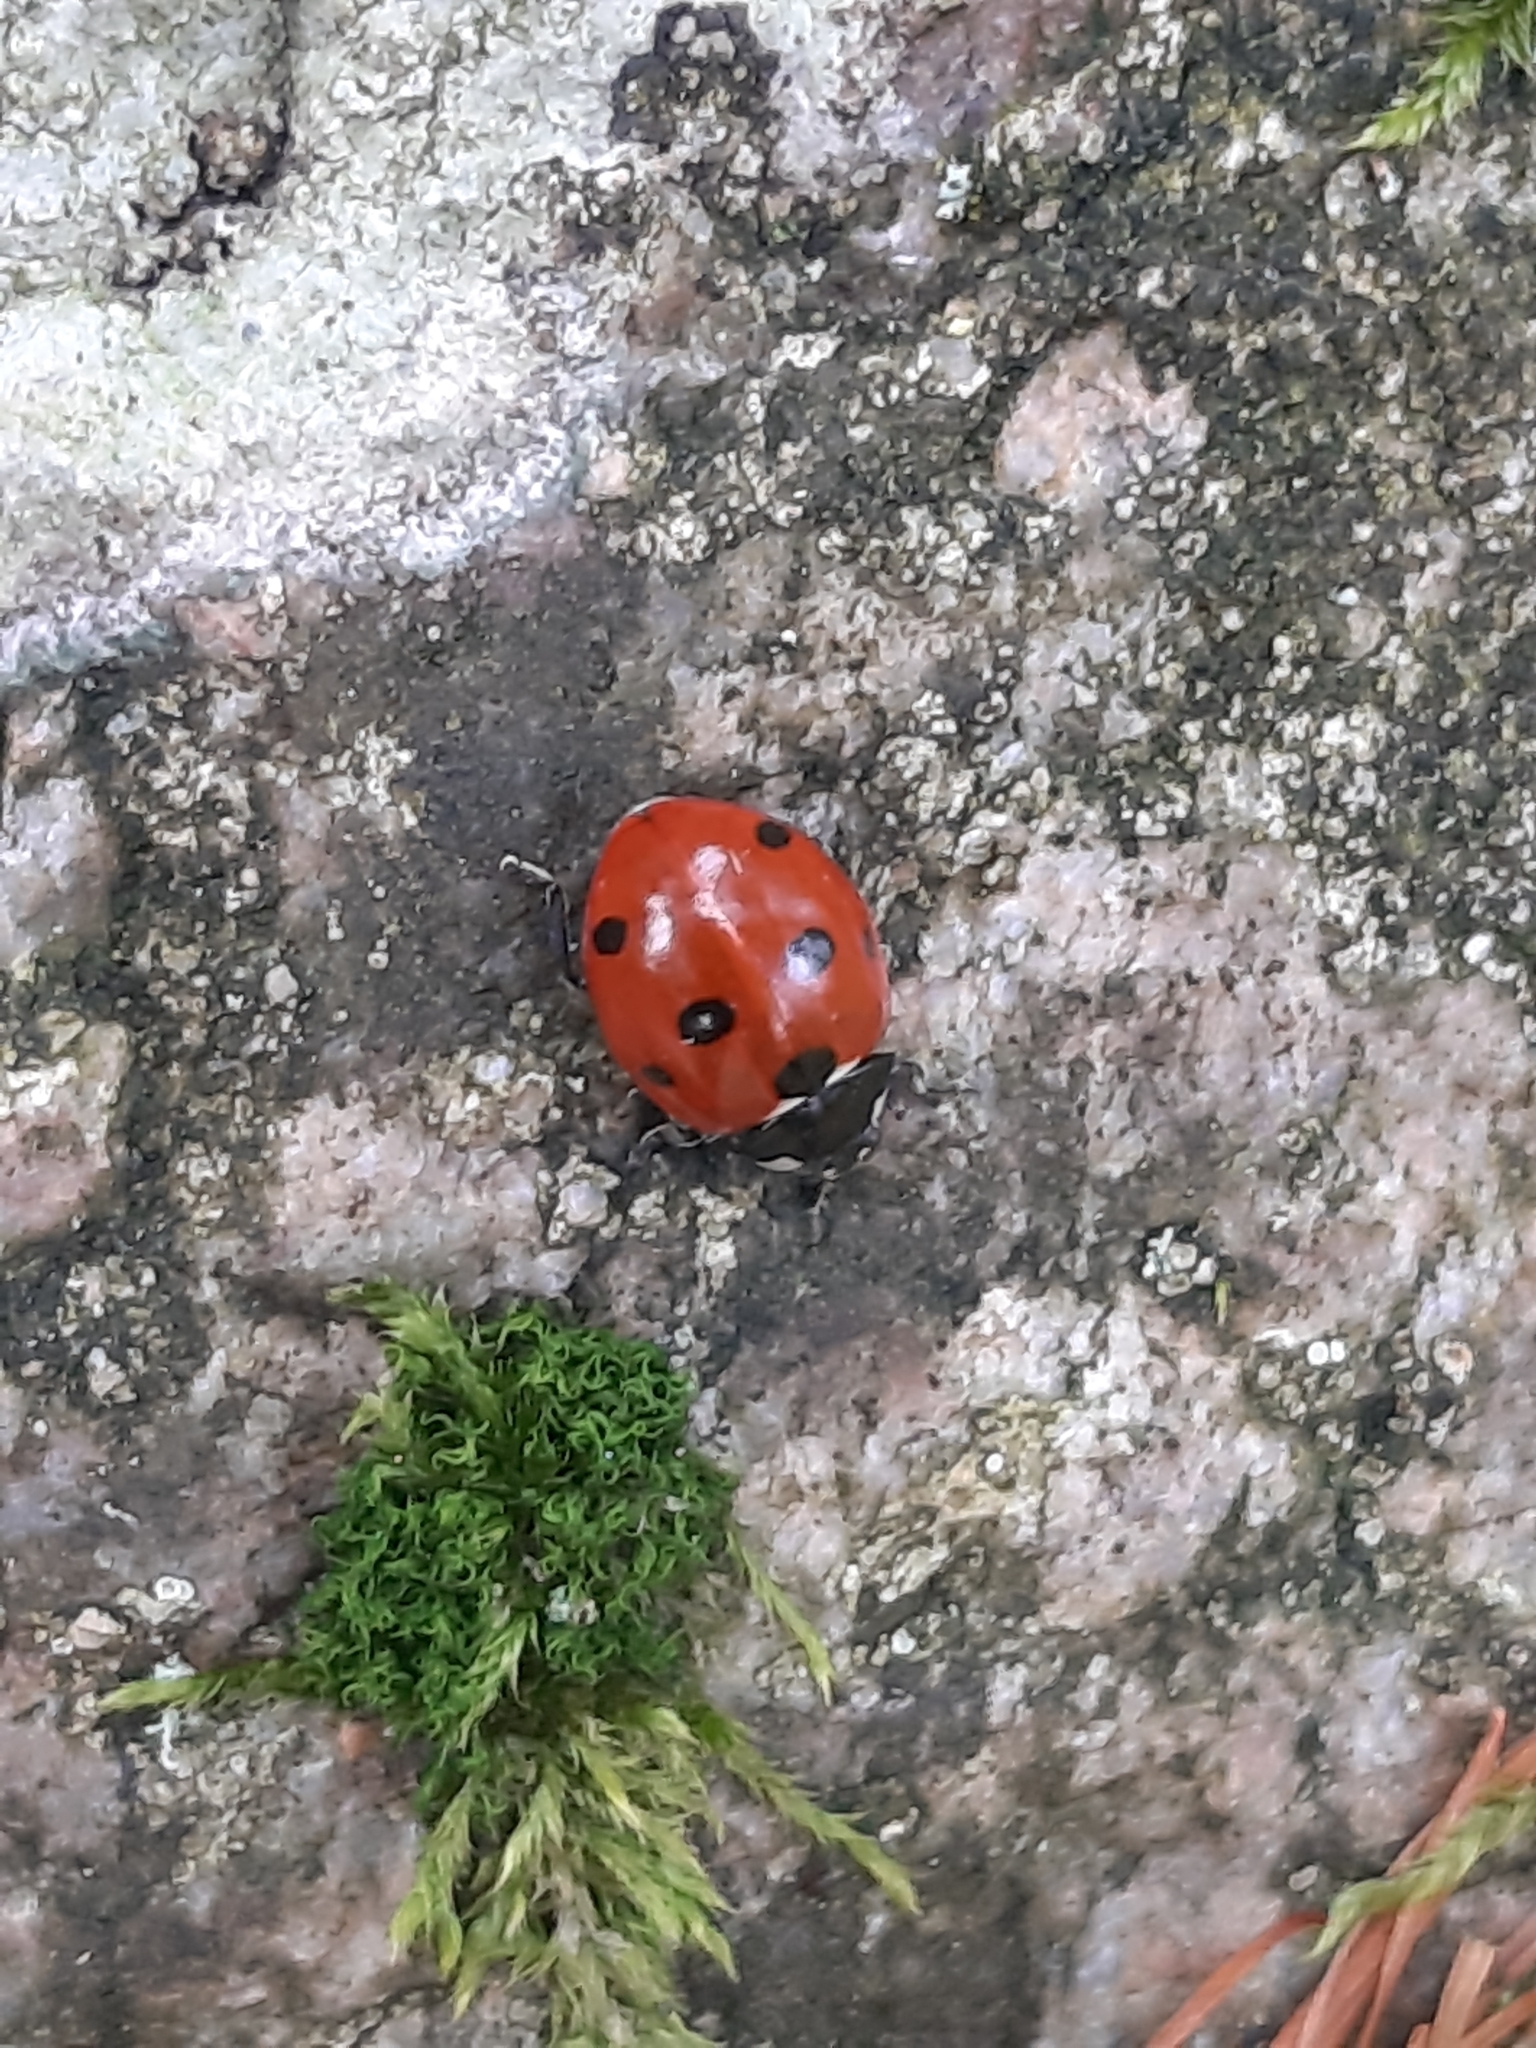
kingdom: Animalia
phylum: Arthropoda
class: Insecta
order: Coleoptera
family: Coccinellidae
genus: Coccinella
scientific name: Coccinella septempunctata
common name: Sevenspotted lady beetle
